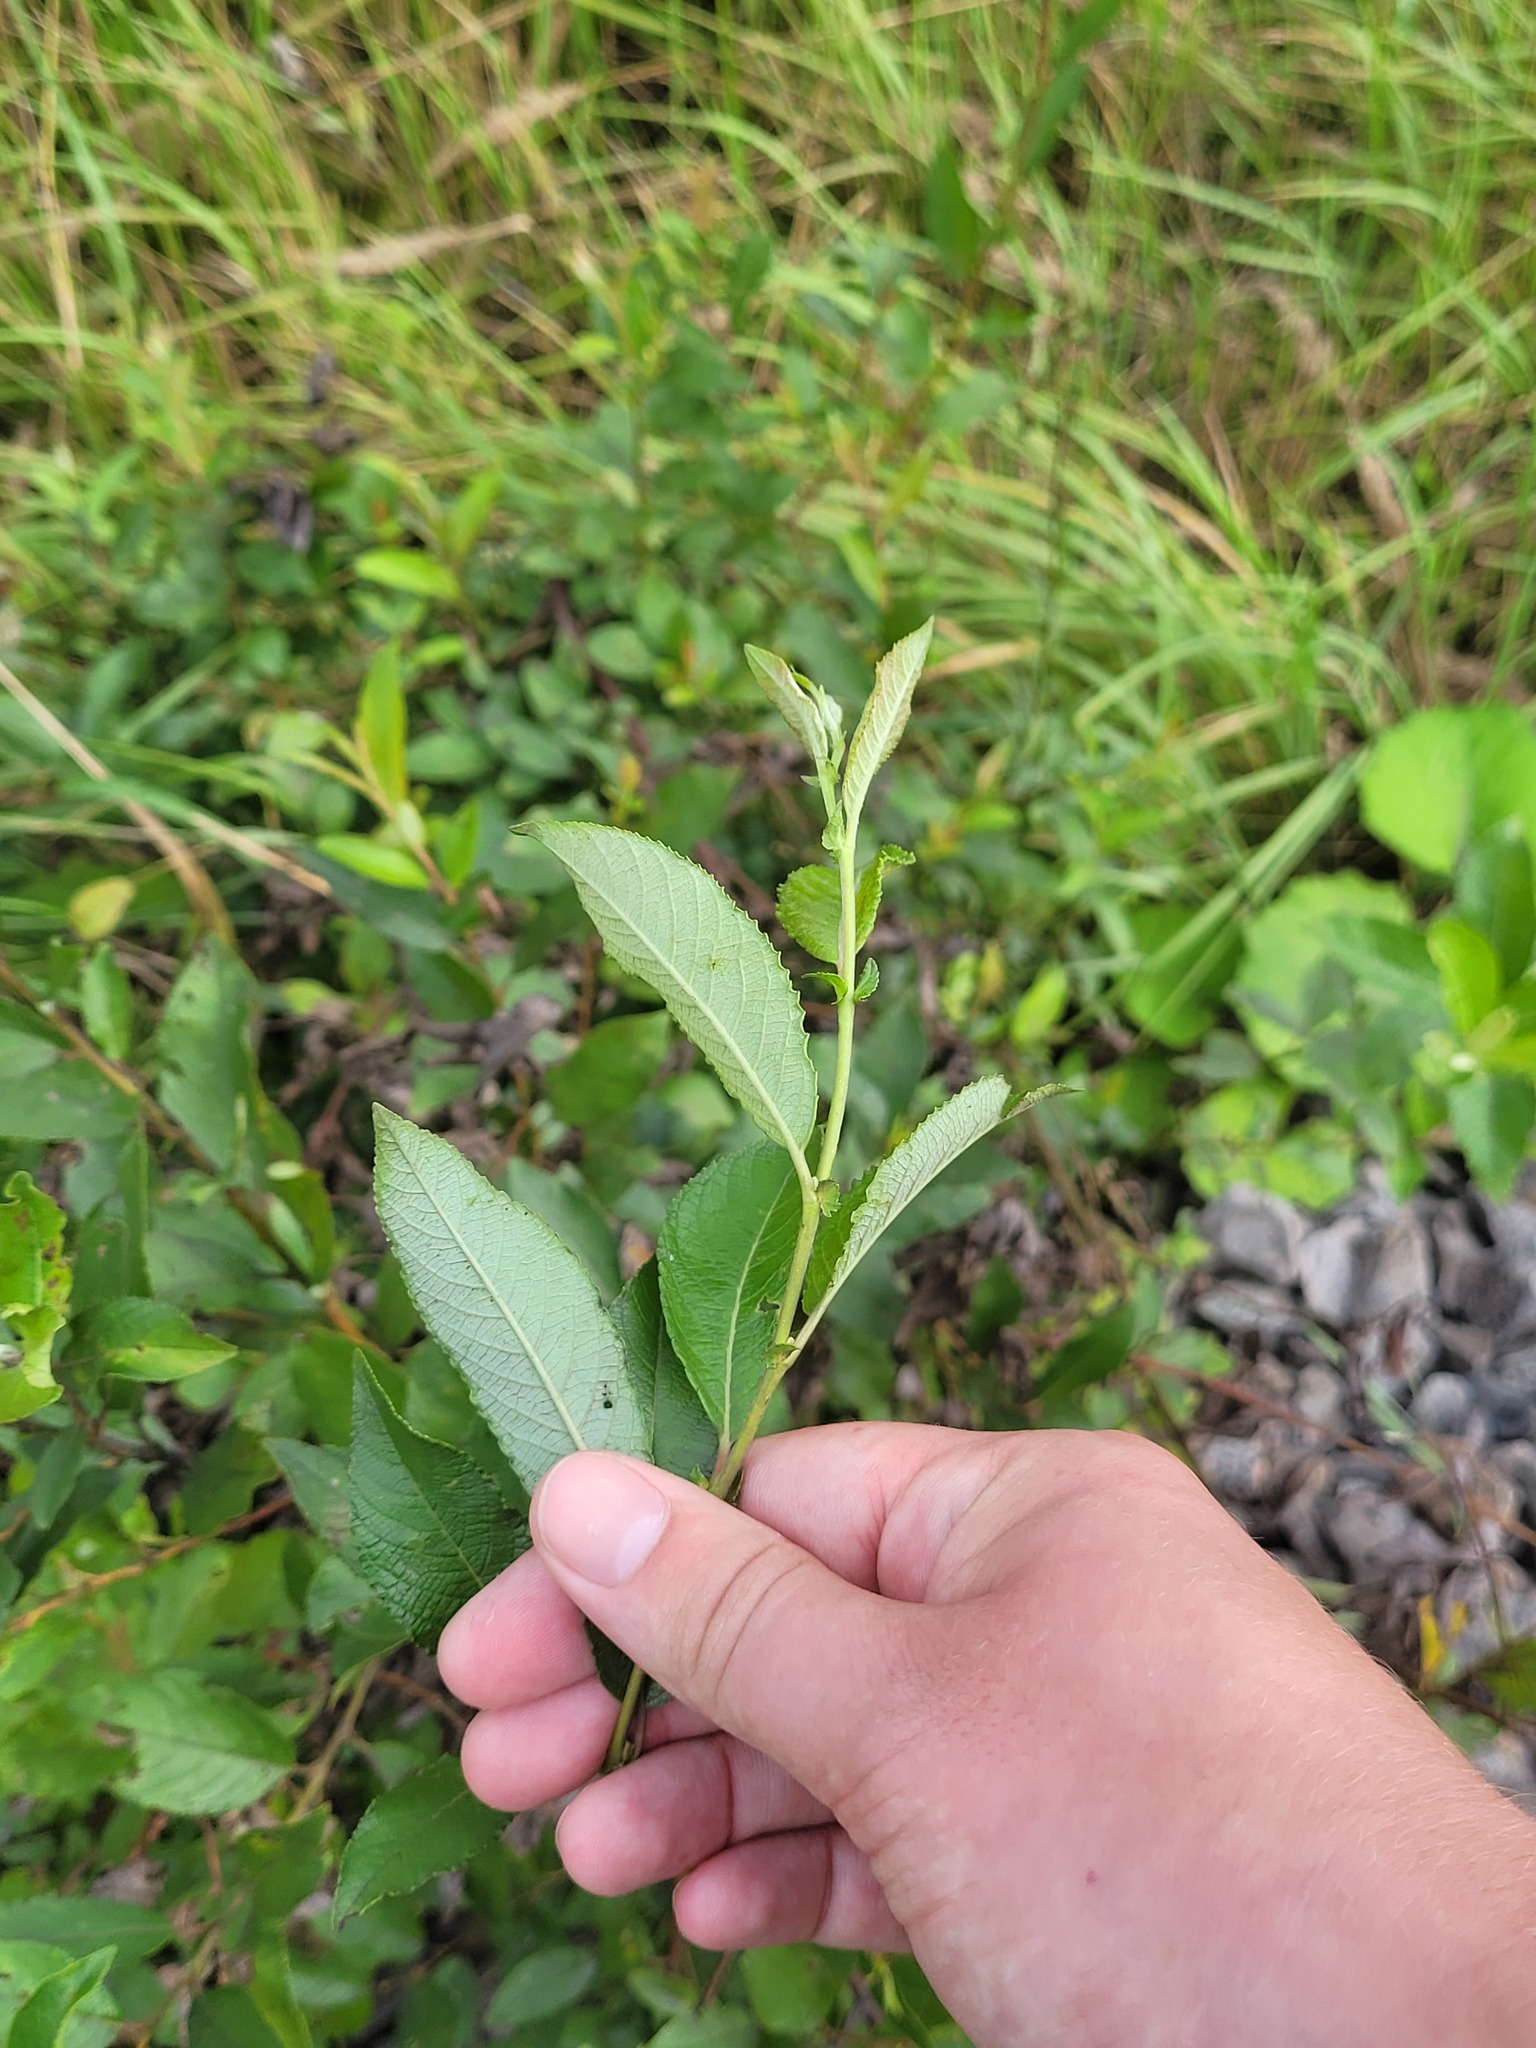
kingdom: Plantae
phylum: Tracheophyta
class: Magnoliopsida
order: Malpighiales
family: Salicaceae
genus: Salix
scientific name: Salix myrsinifolia
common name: Dark-leaved willow
